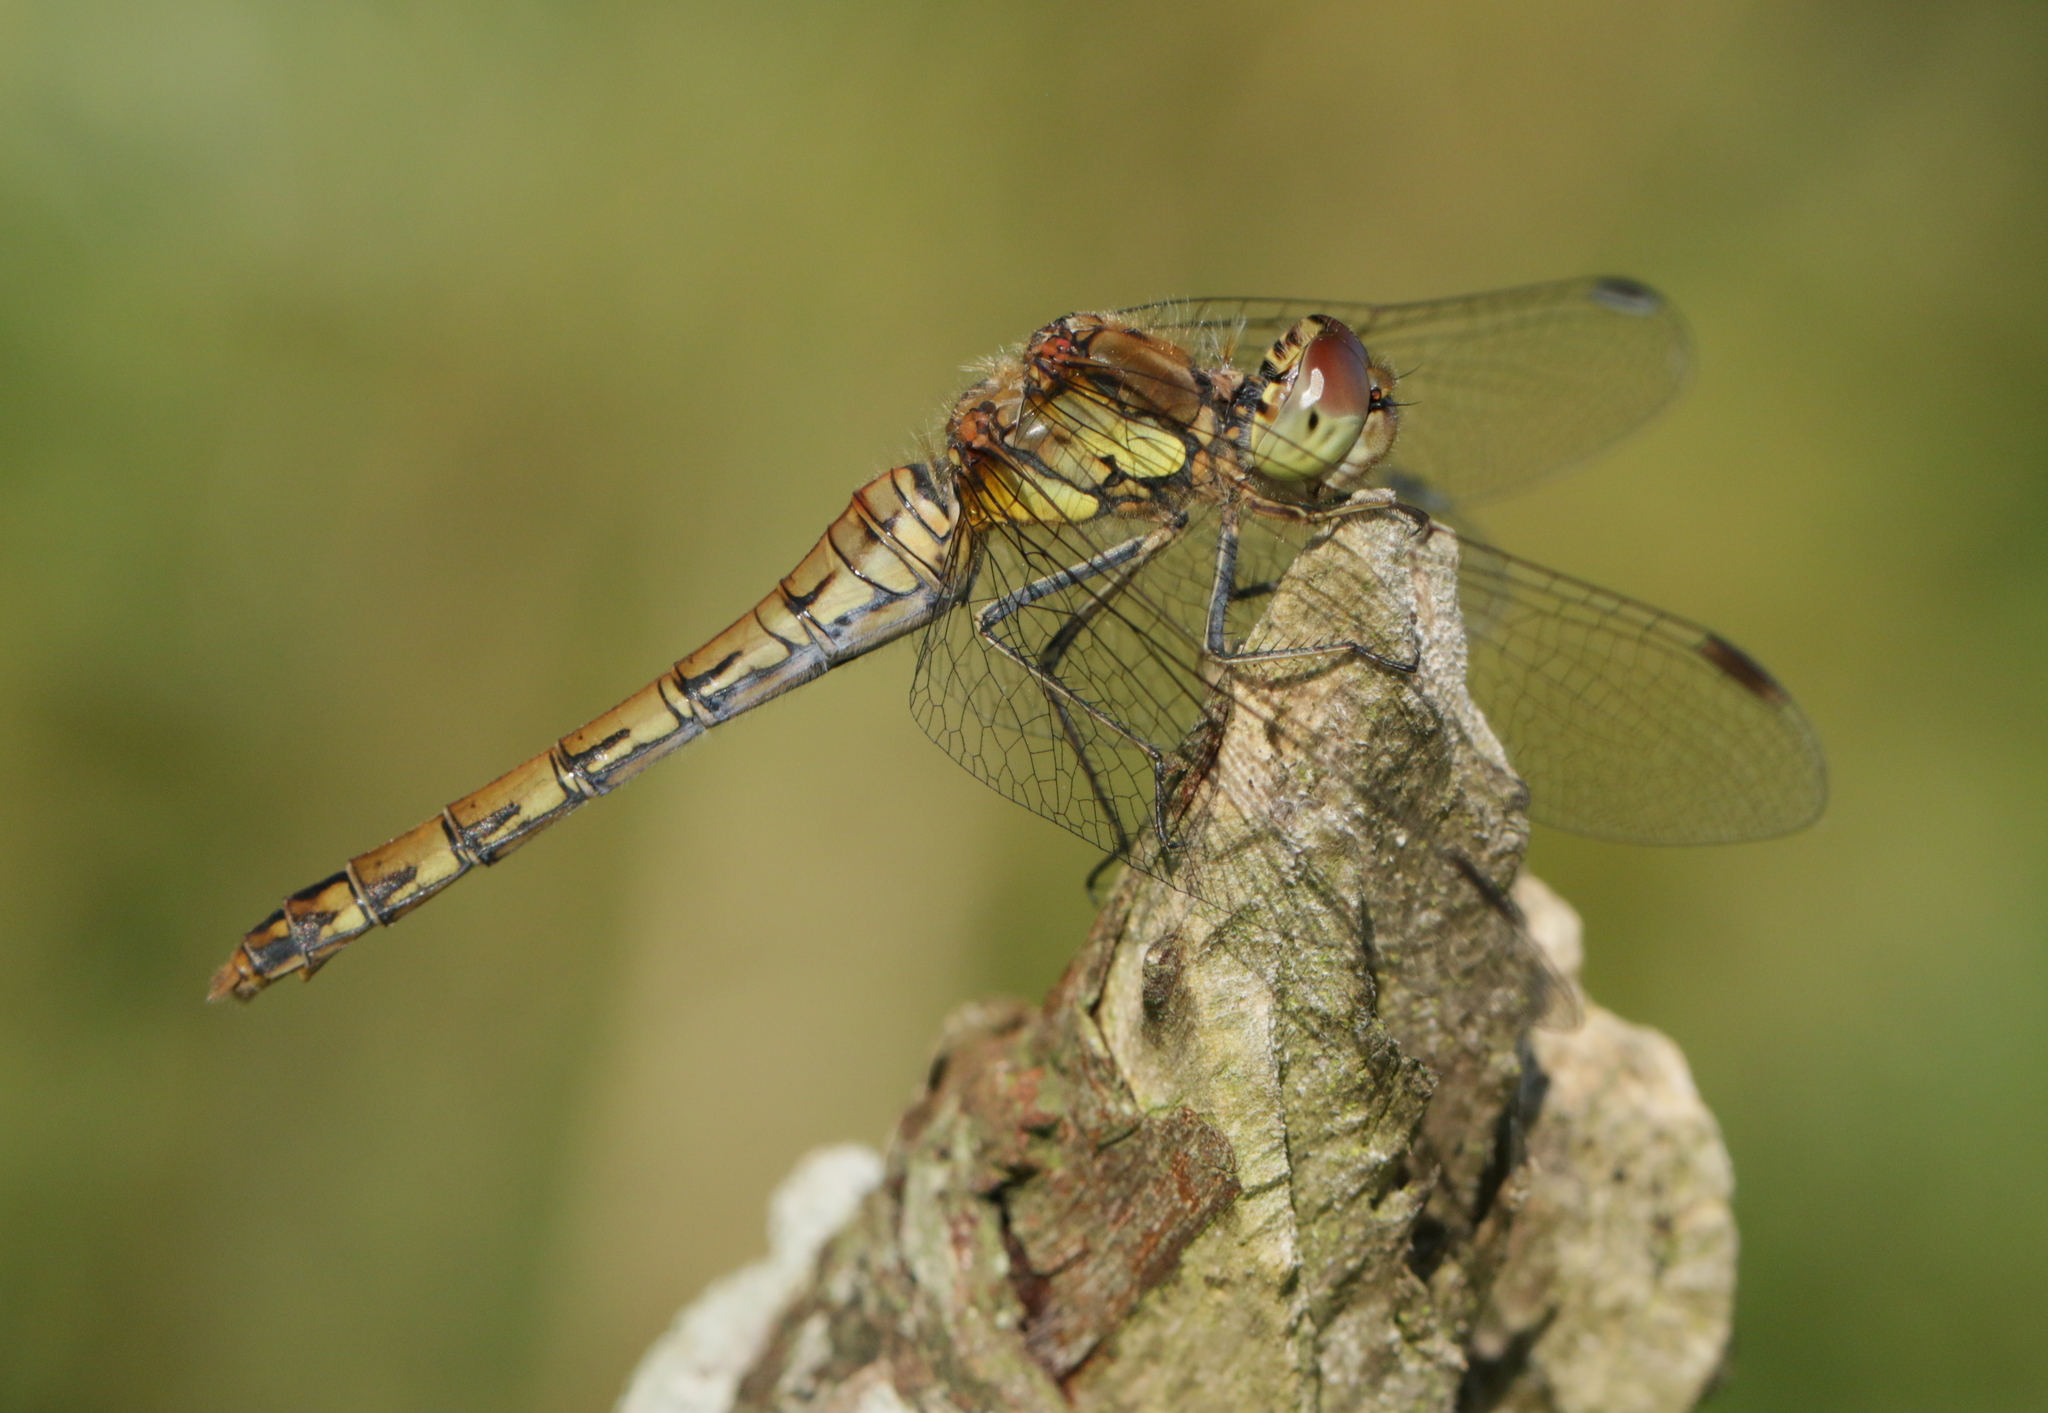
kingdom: Animalia
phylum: Arthropoda
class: Insecta
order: Odonata
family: Libellulidae
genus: Sympetrum
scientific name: Sympetrum striolatum
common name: Common darter
